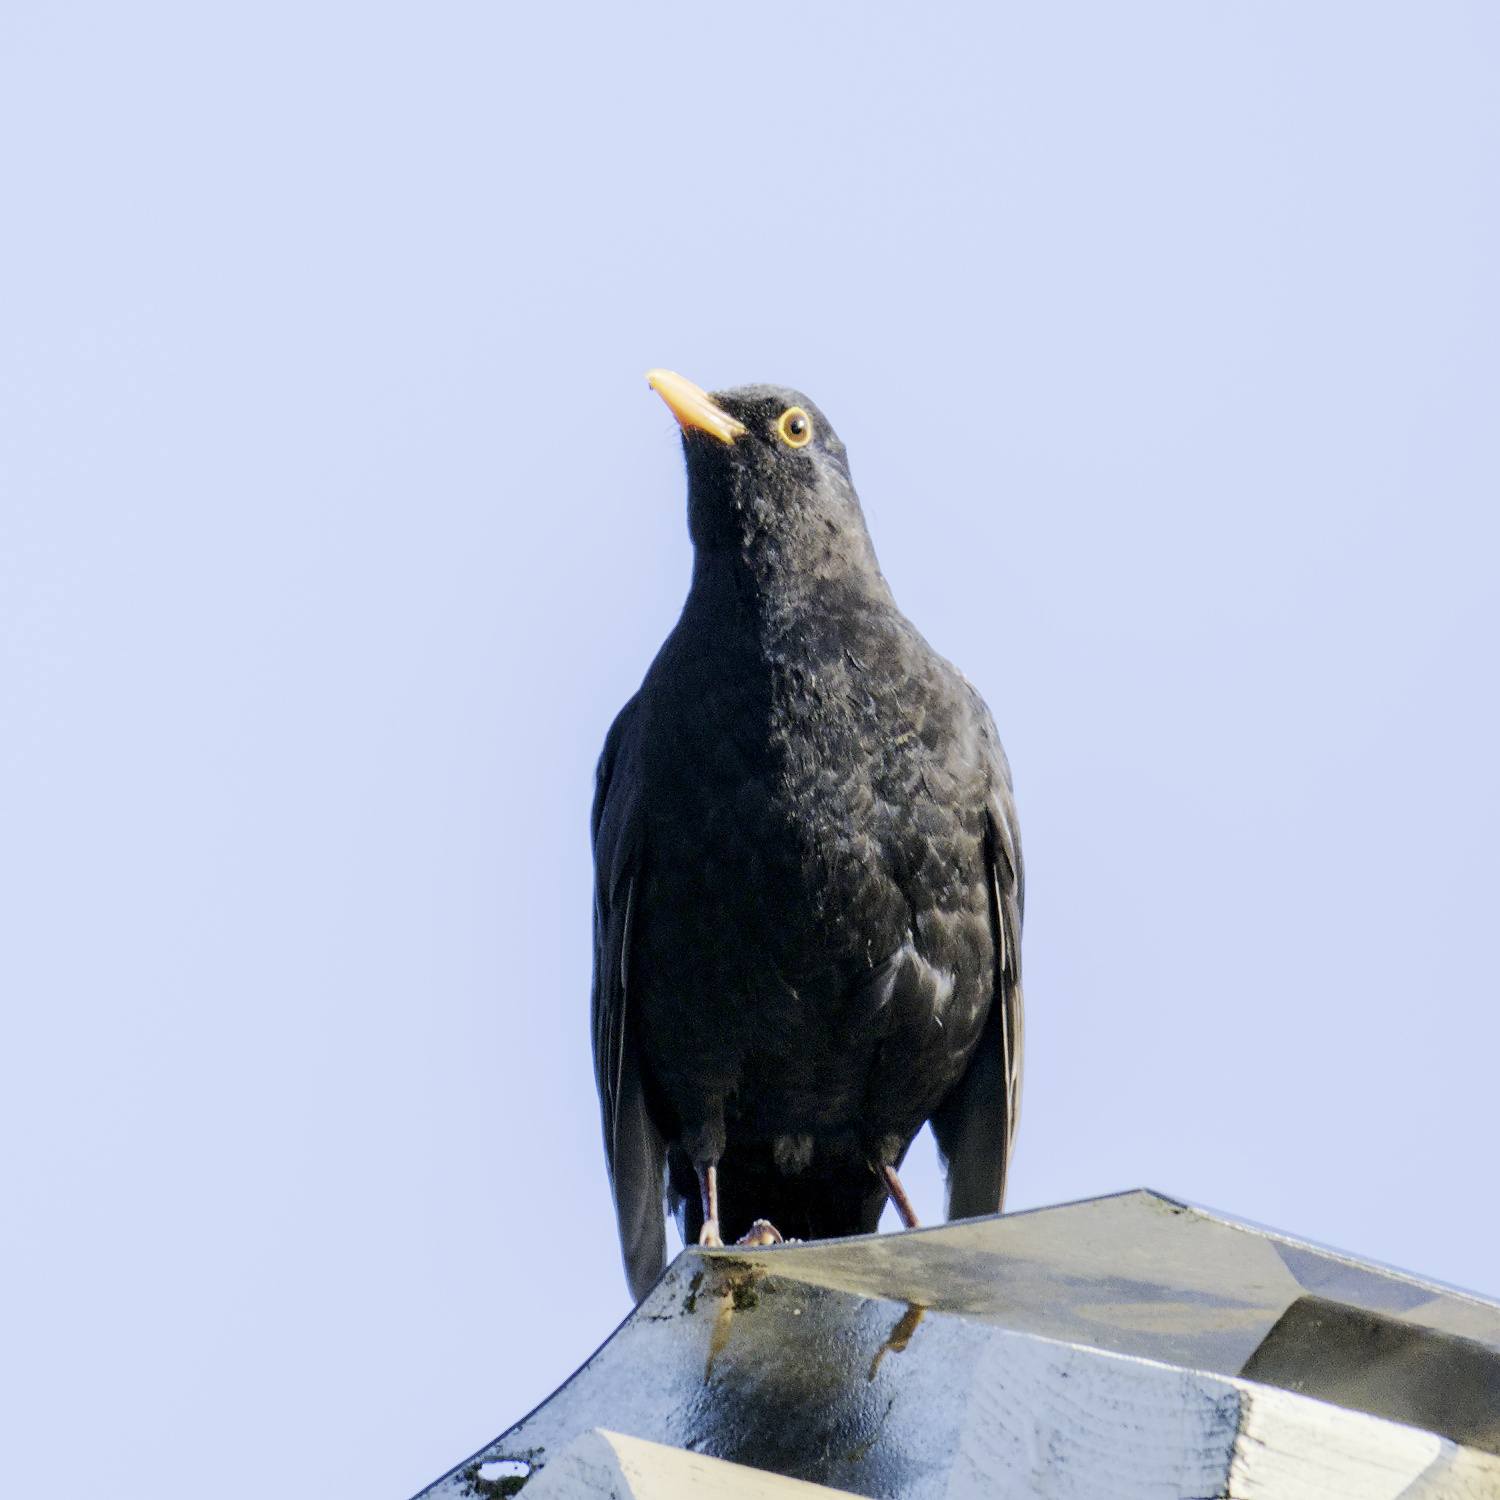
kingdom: Animalia
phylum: Chordata
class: Aves
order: Passeriformes
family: Turdidae
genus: Turdus
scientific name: Turdus merula
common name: Common blackbird
